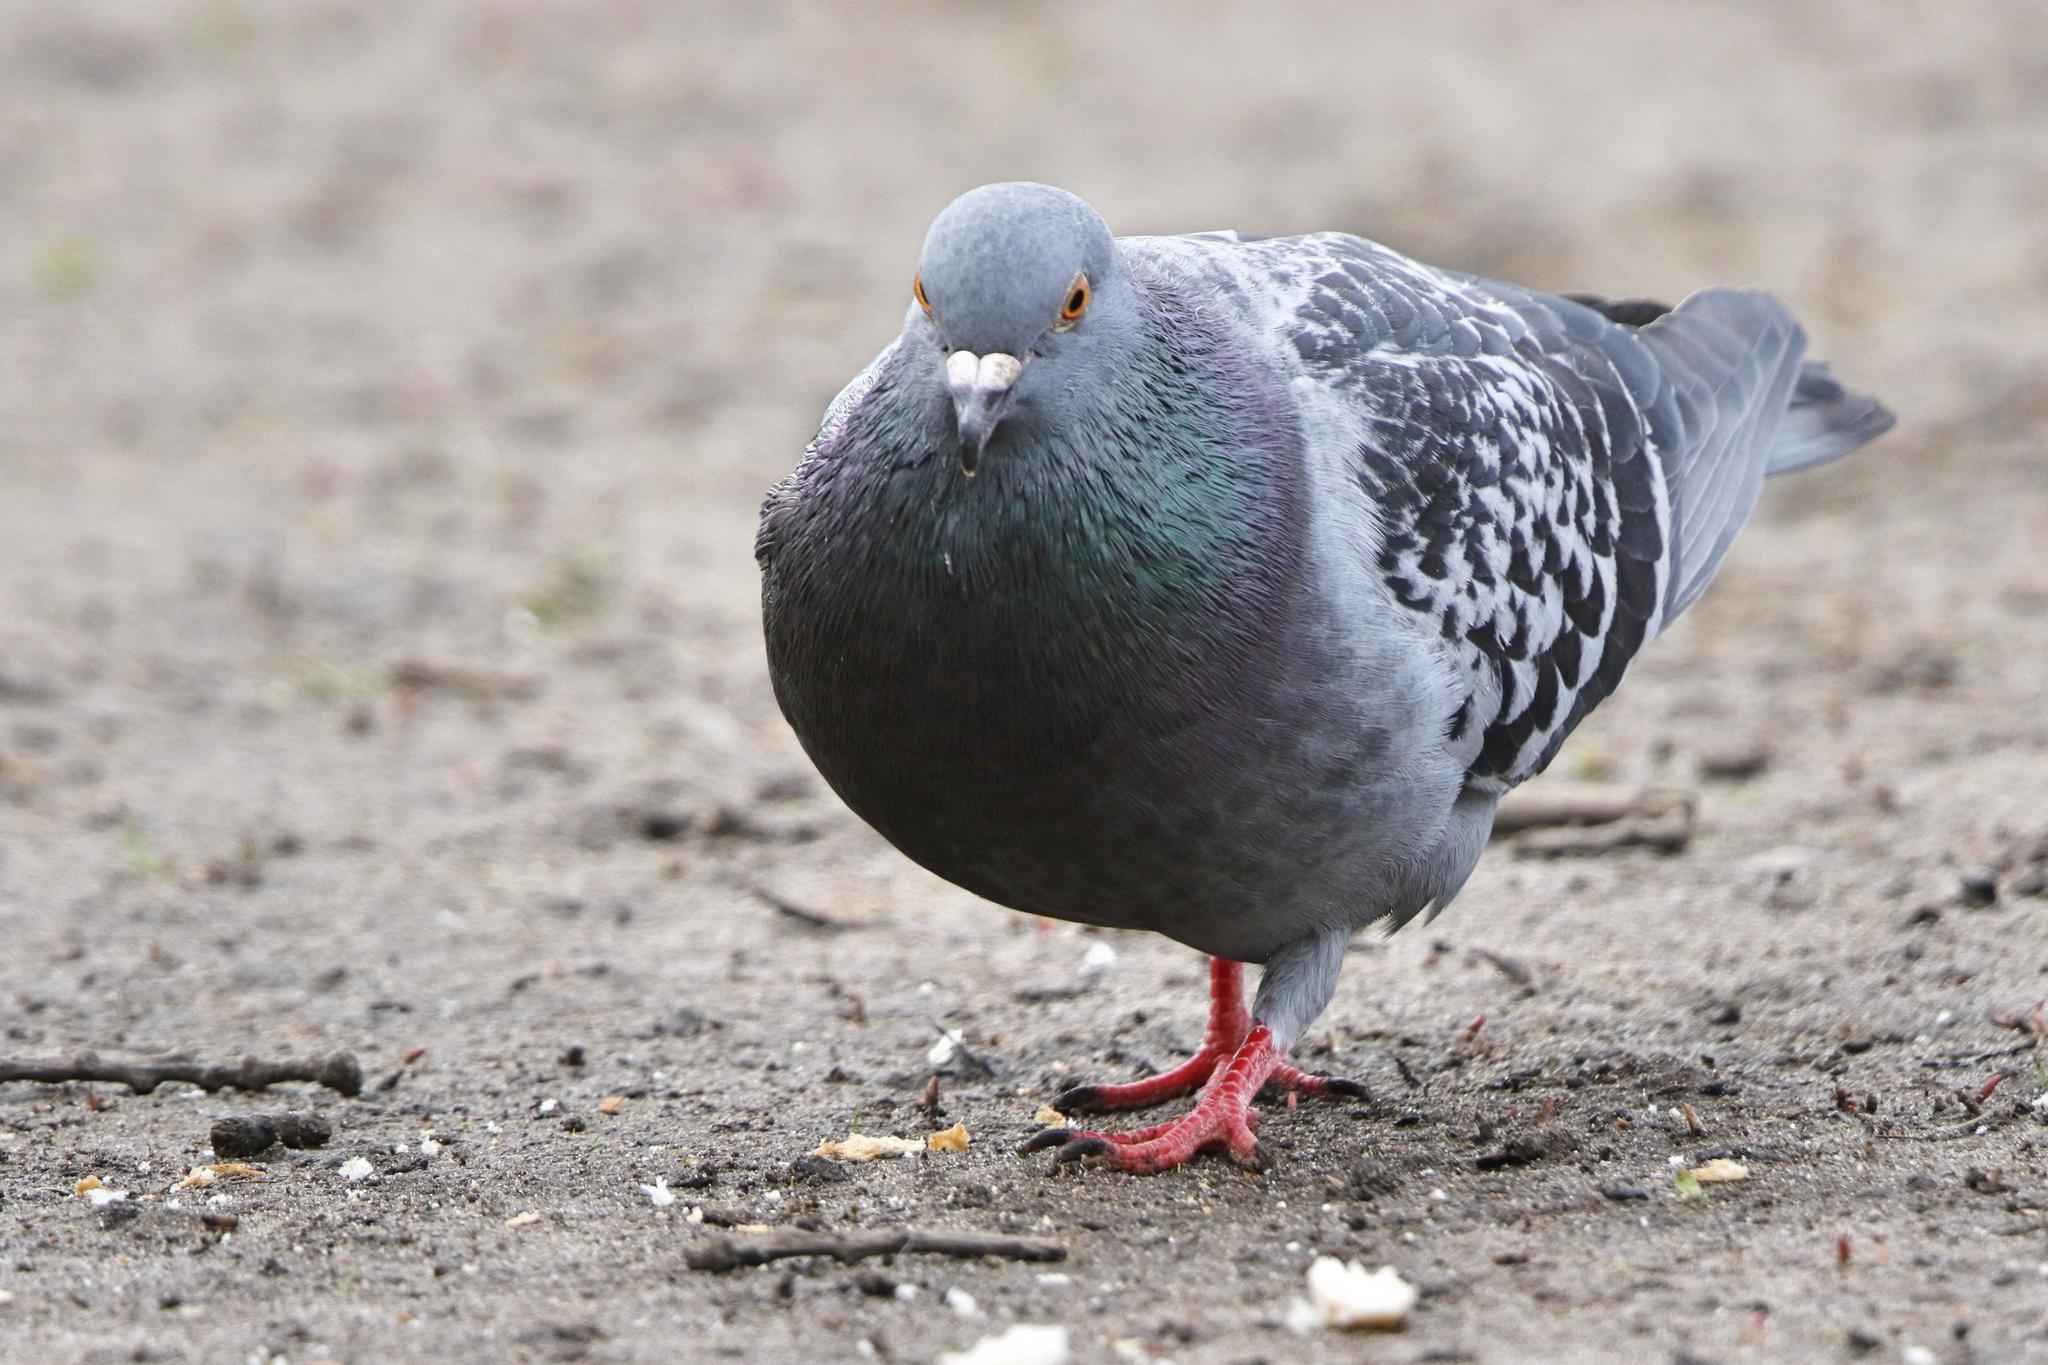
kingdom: Animalia
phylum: Chordata
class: Aves
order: Columbiformes
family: Columbidae
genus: Columba
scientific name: Columba livia
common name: Rock pigeon
